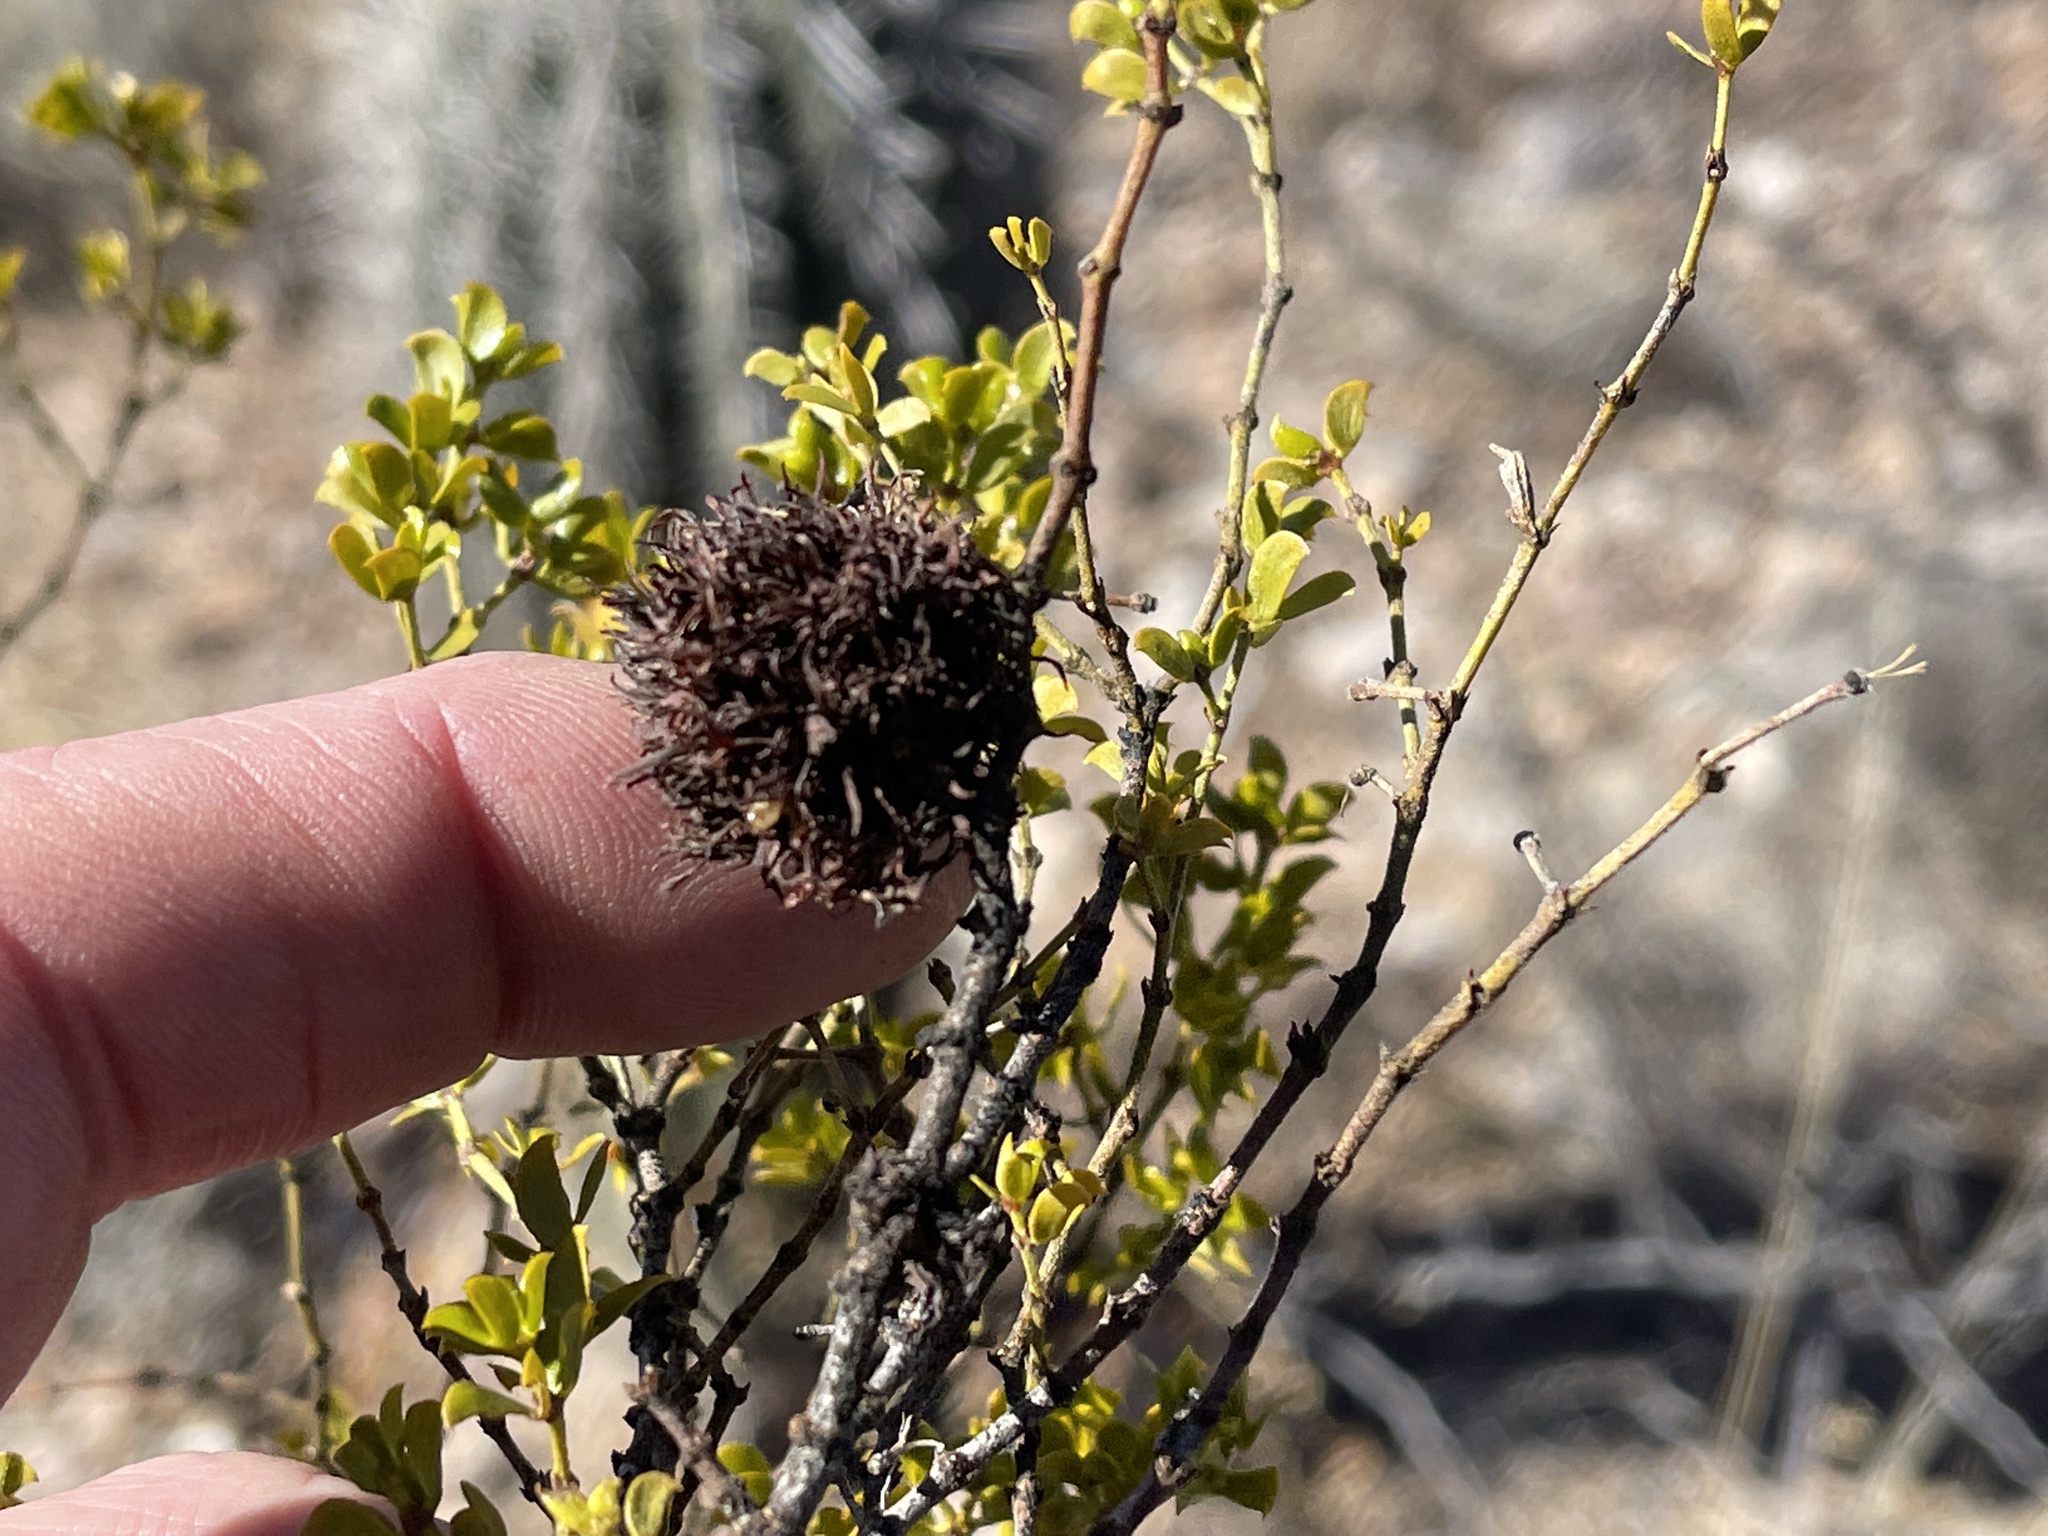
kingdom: Animalia
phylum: Arthropoda
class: Insecta
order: Diptera
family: Cecidomyiidae
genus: Asphondylia
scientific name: Asphondylia auripila
